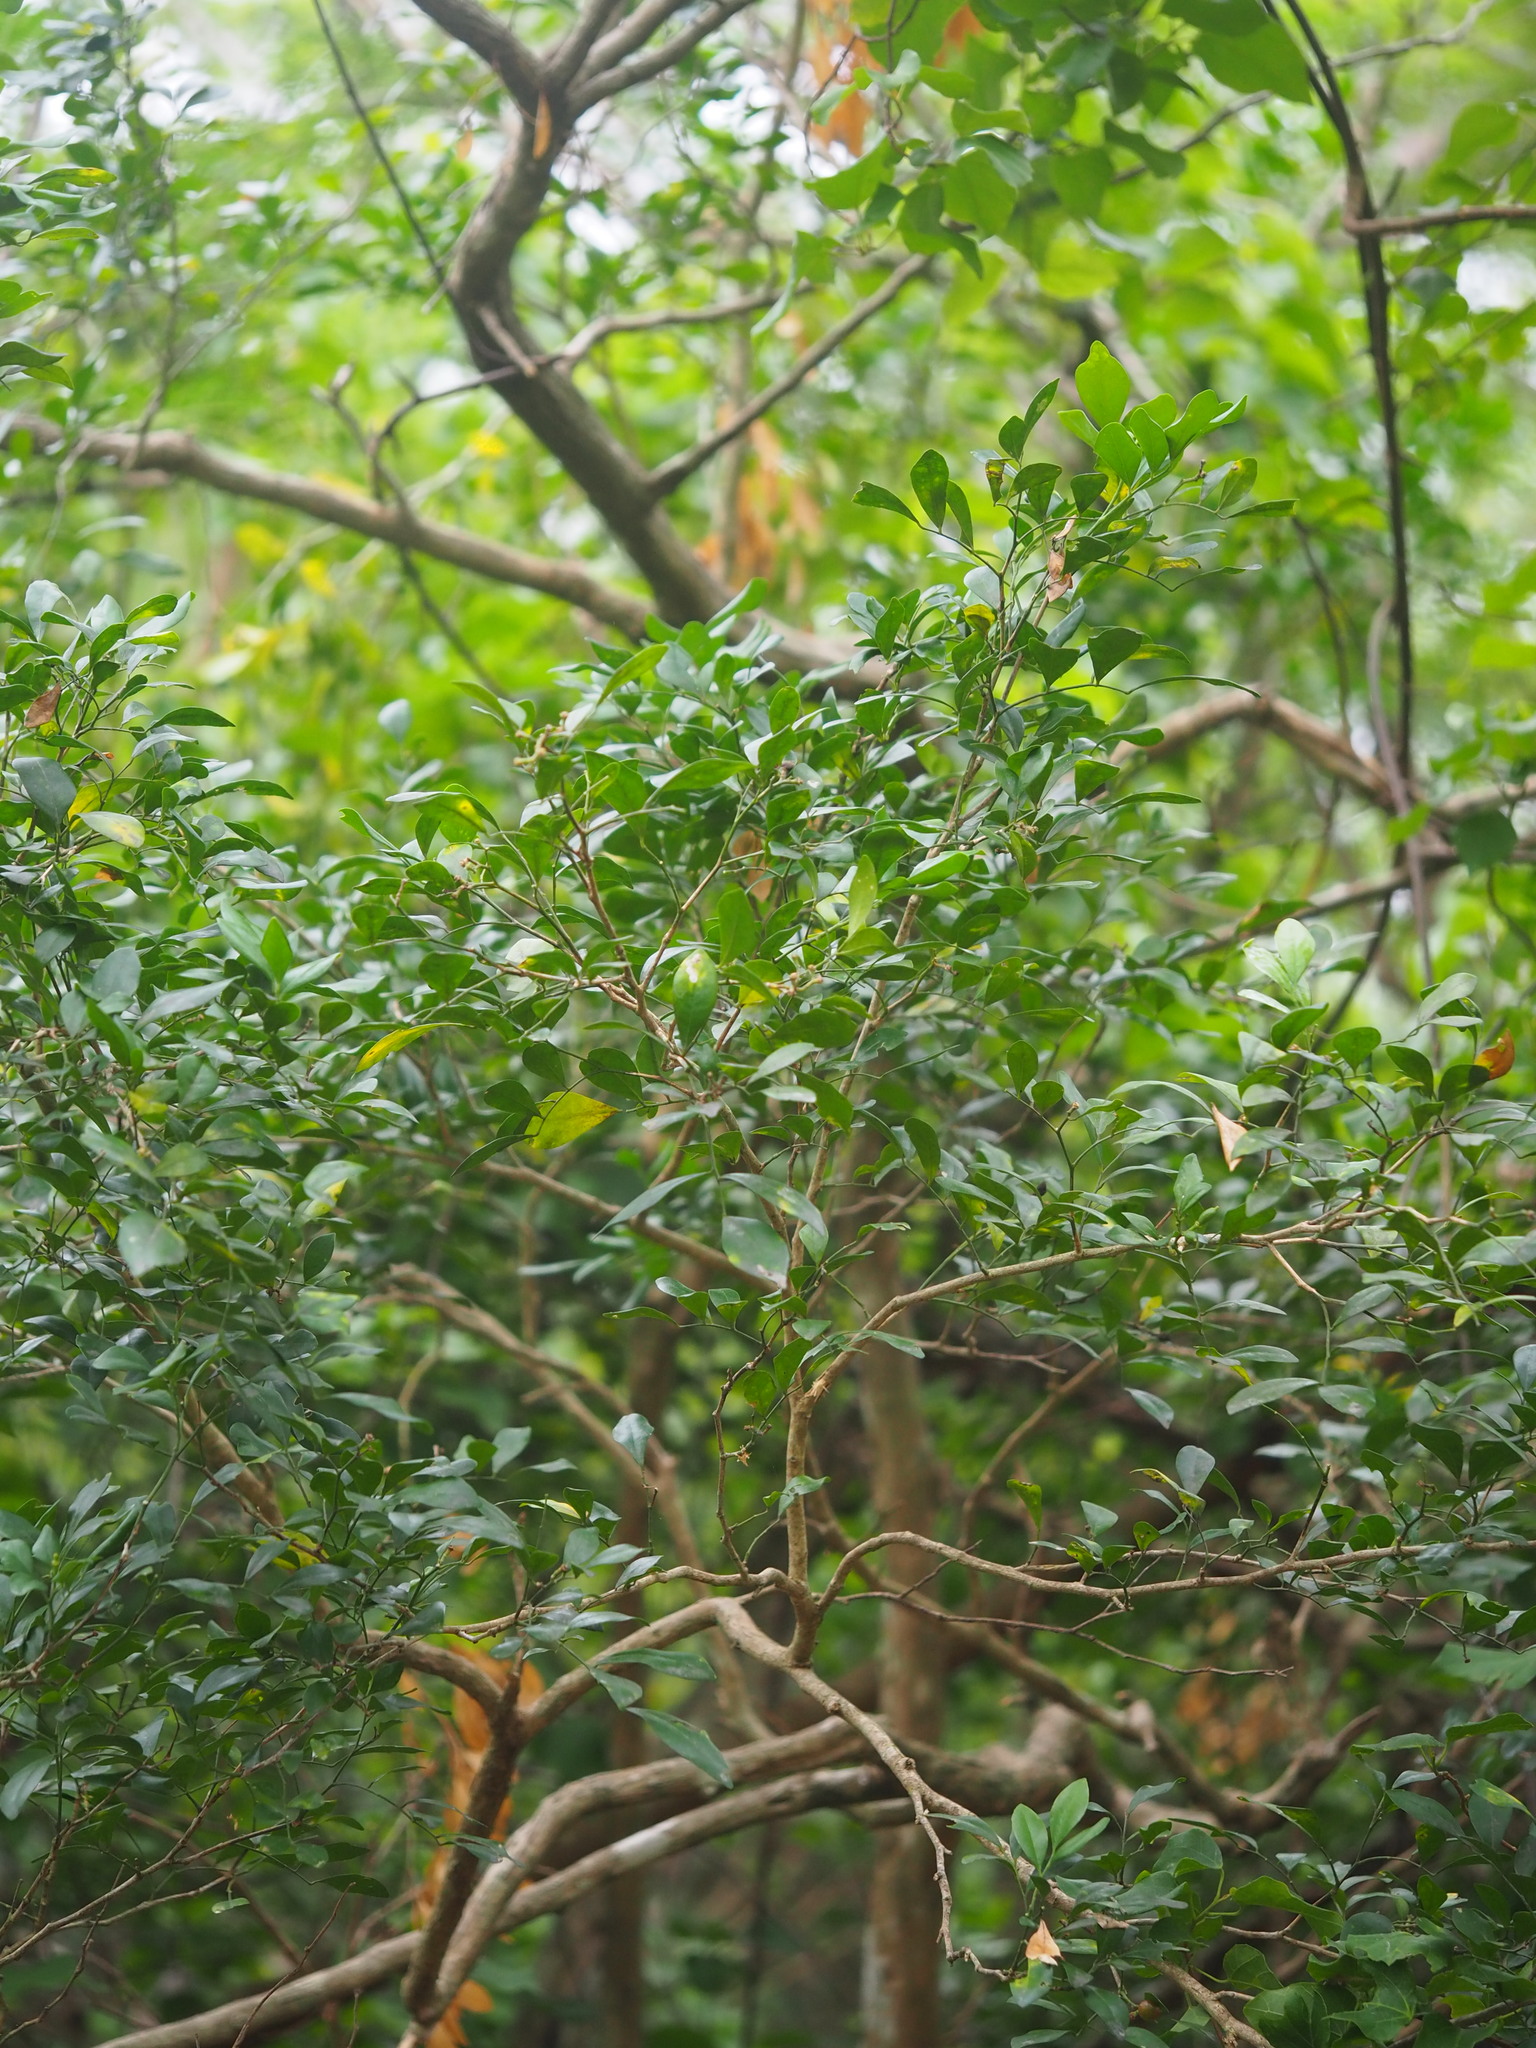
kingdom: Plantae
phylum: Tracheophyta
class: Magnoliopsida
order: Sapindales
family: Rutaceae
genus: Murraya
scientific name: Murraya paniculata
